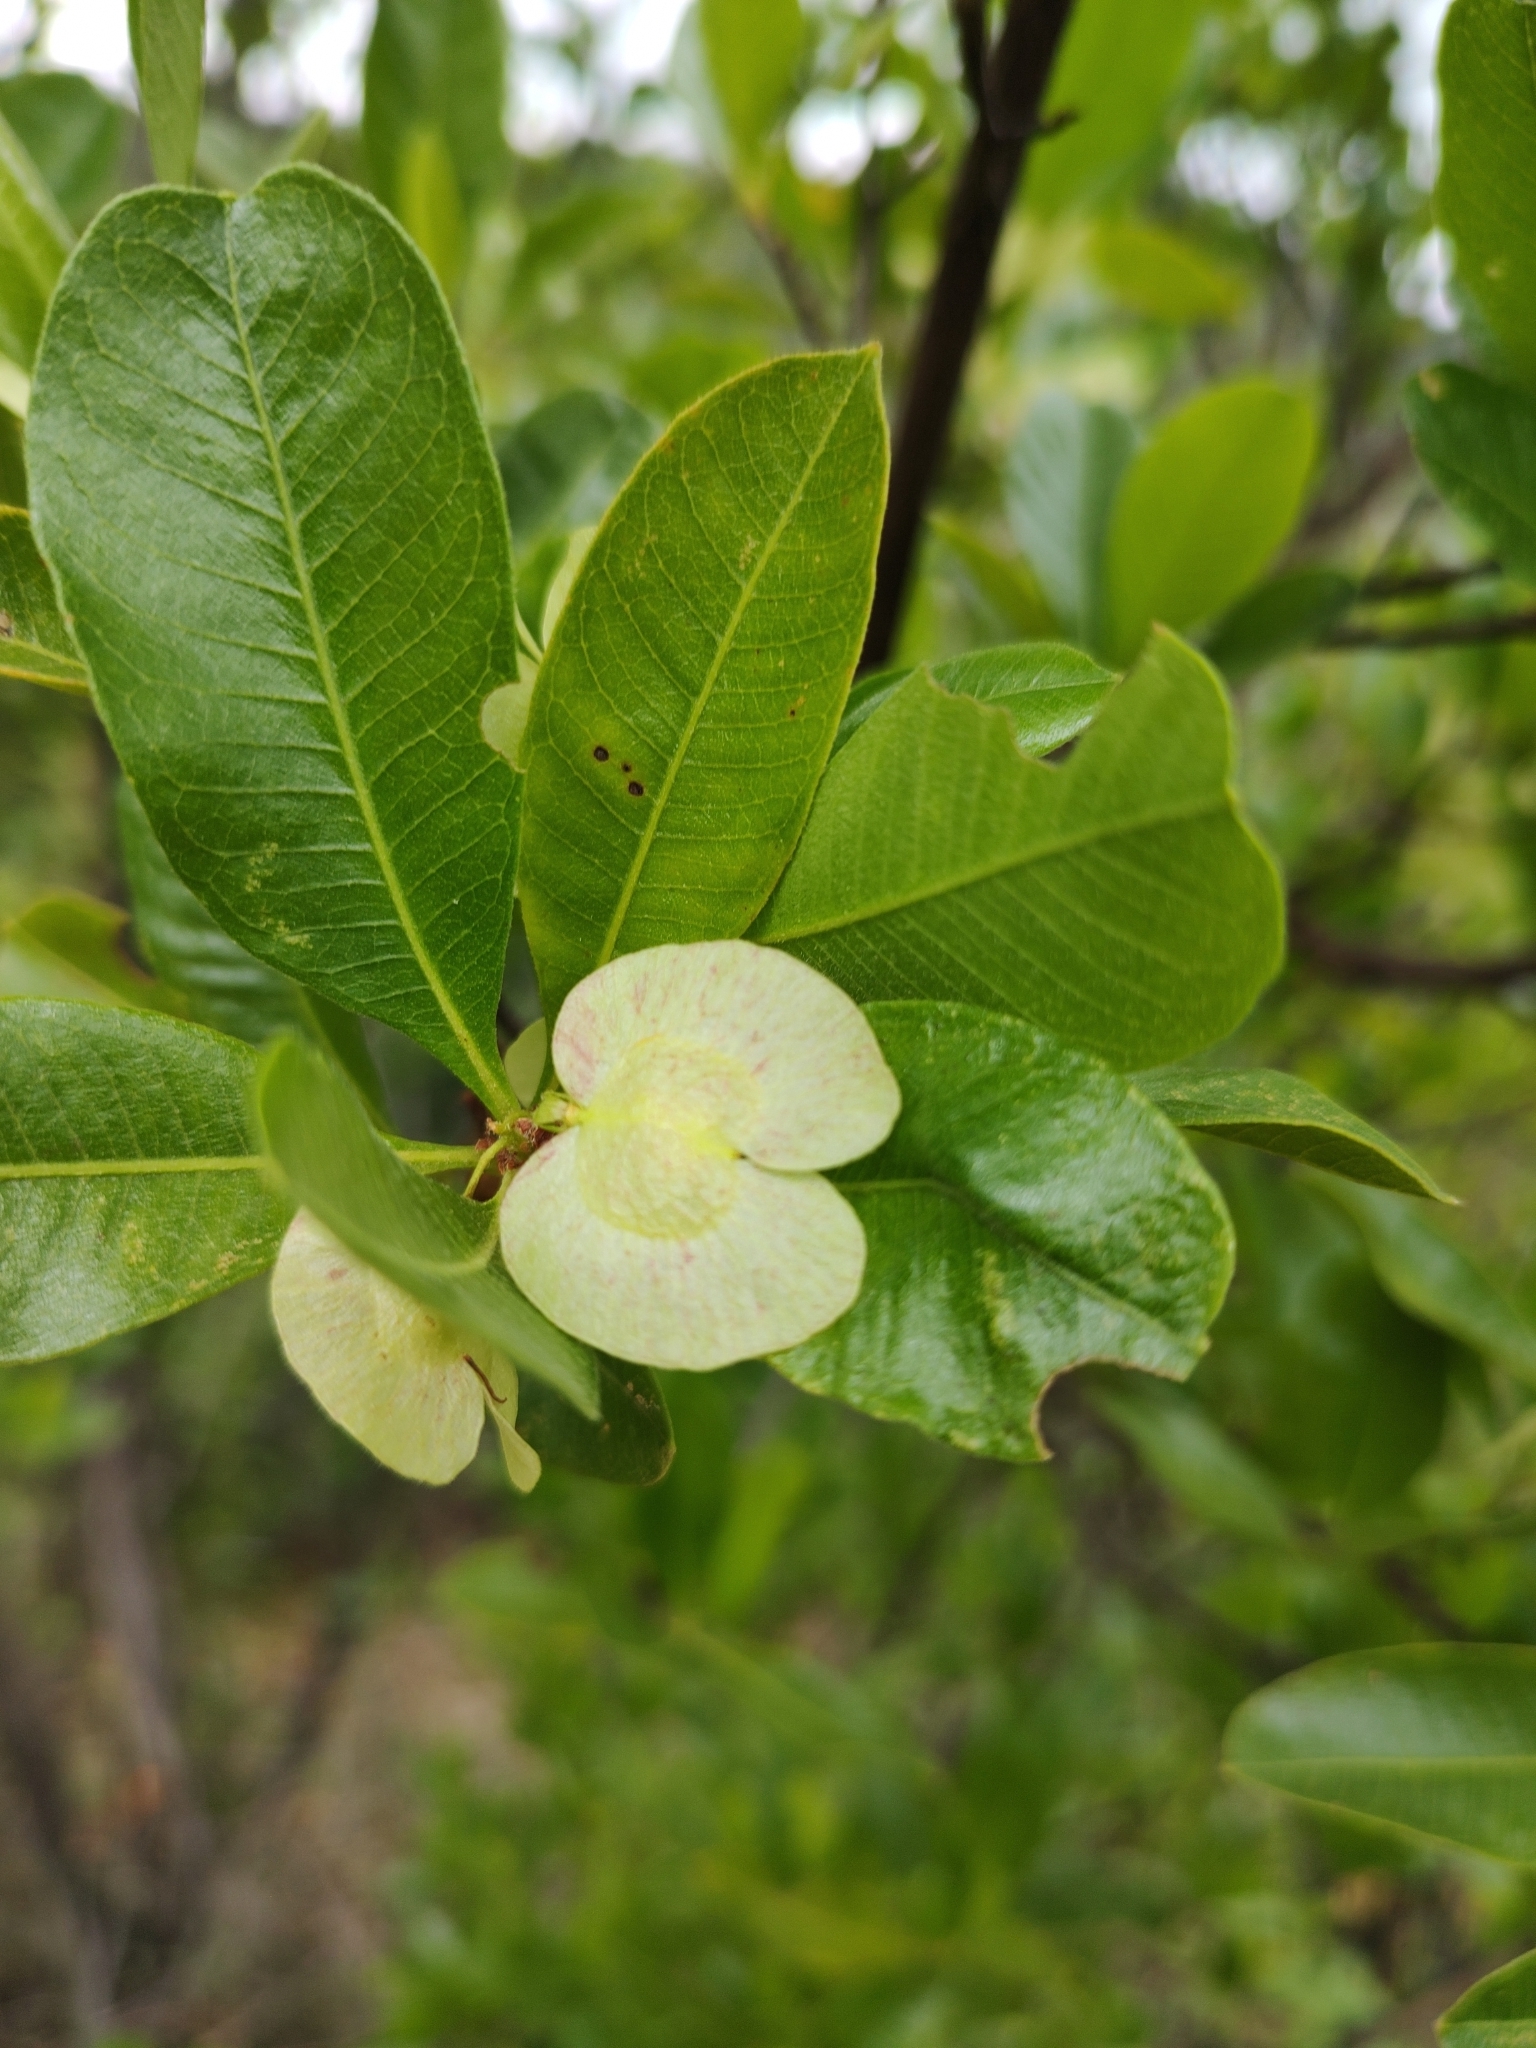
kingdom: Plantae
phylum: Tracheophyta
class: Magnoliopsida
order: Sapindales
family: Sapindaceae
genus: Dodonaea
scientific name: Dodonaea viscosa
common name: Hopbush
